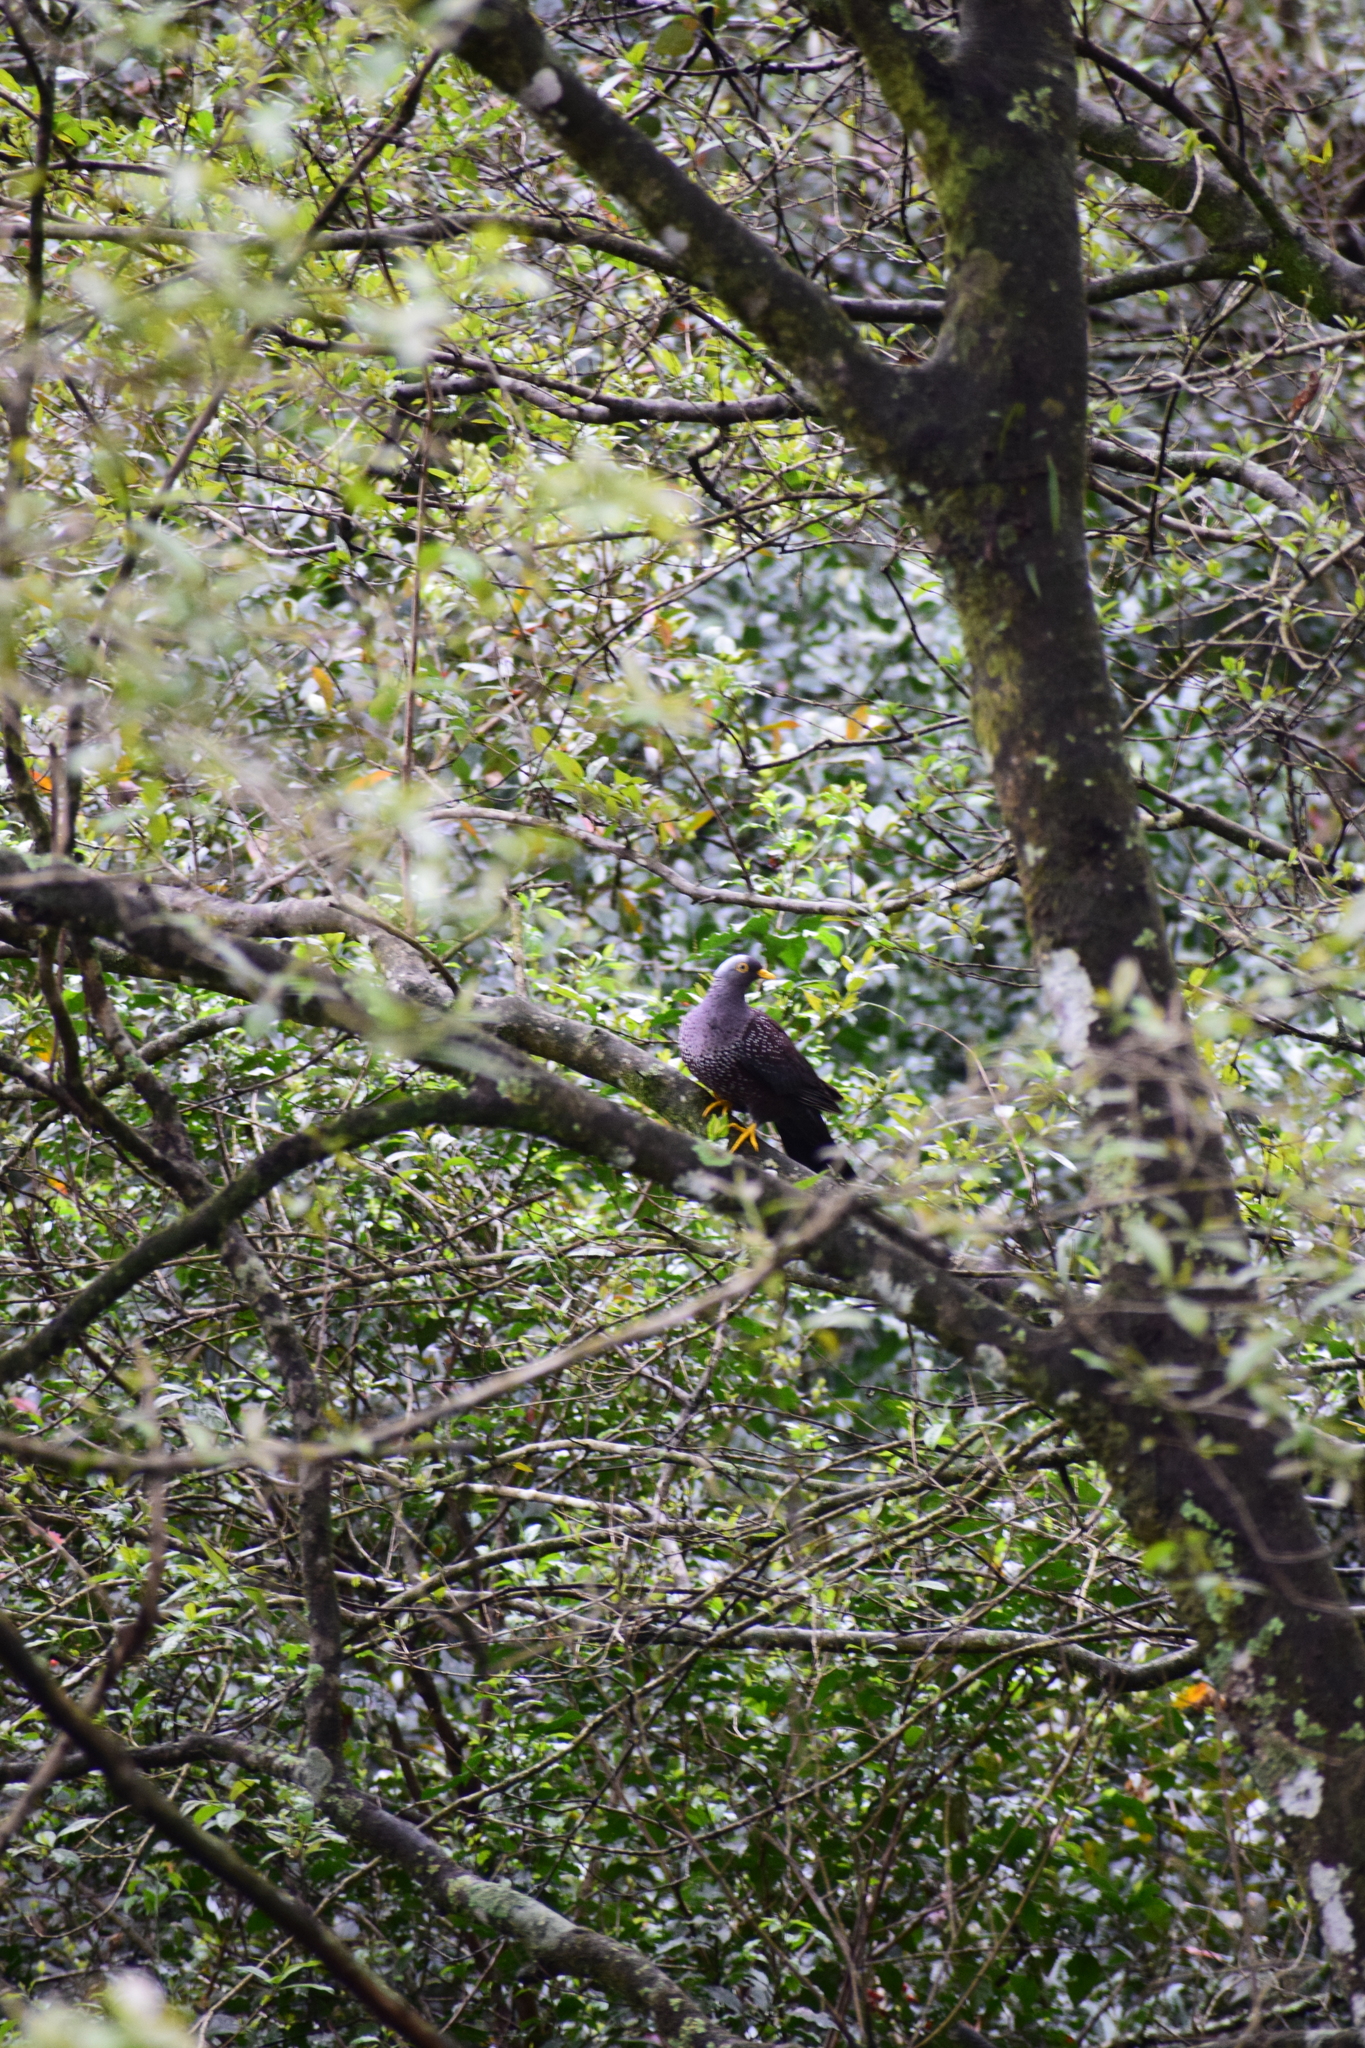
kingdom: Animalia
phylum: Chordata
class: Aves
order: Columbiformes
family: Columbidae
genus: Columba
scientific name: Columba arquatrix
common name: African olive pigeon
